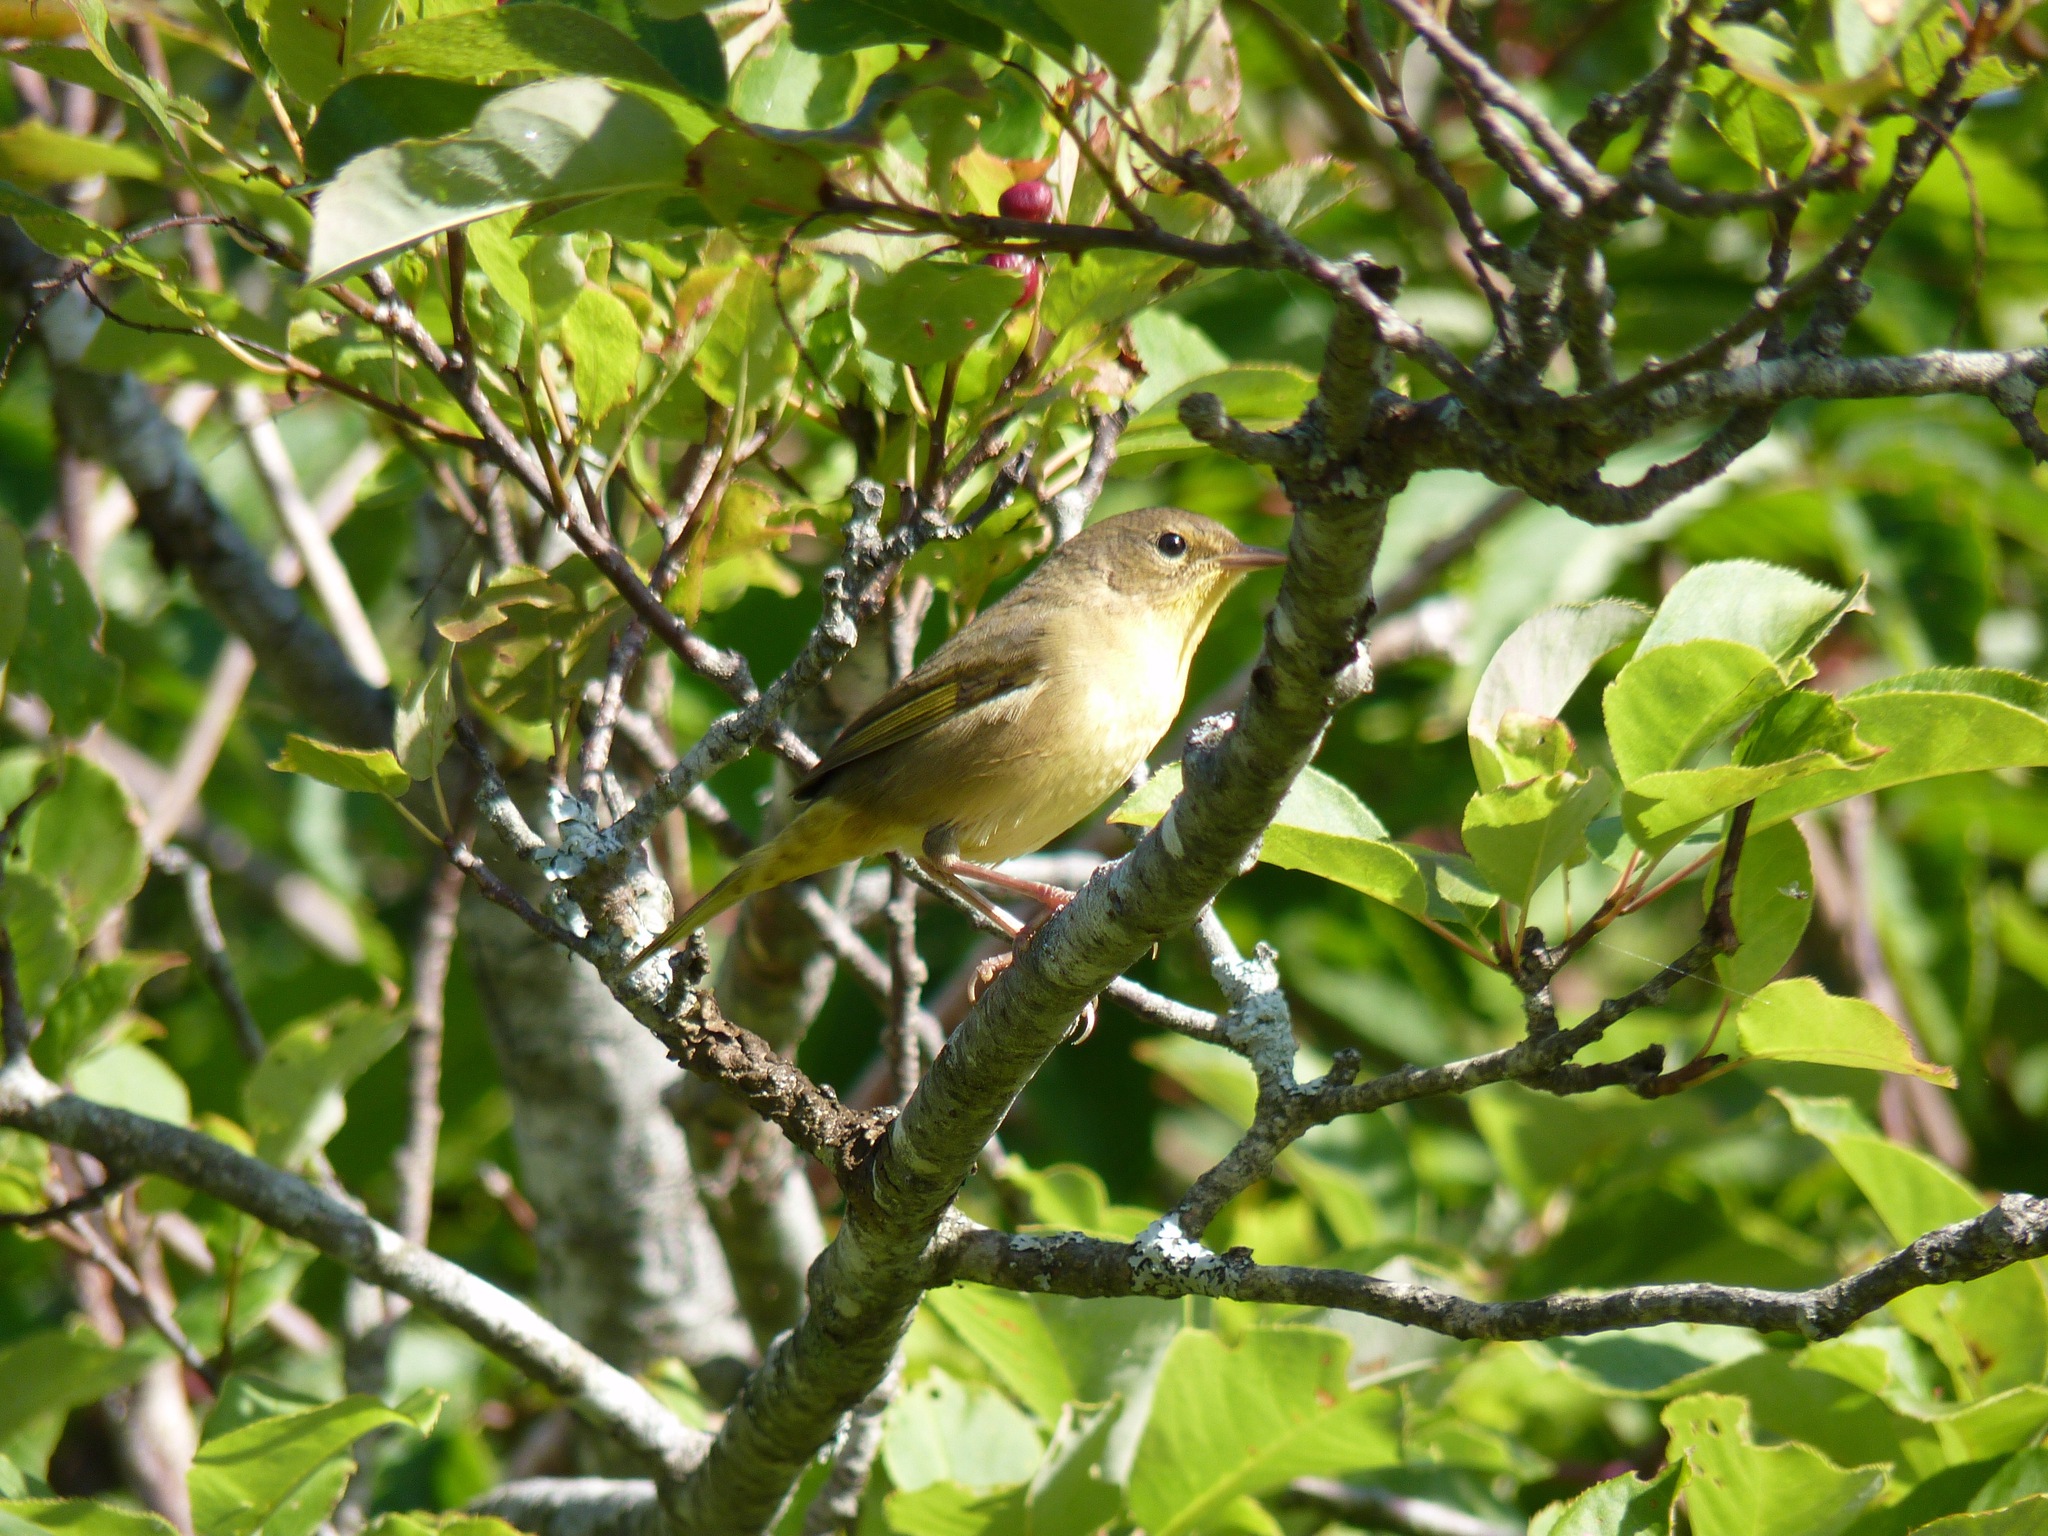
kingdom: Animalia
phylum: Chordata
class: Aves
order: Passeriformes
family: Parulidae
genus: Geothlypis
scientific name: Geothlypis trichas
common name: Common yellowthroat
